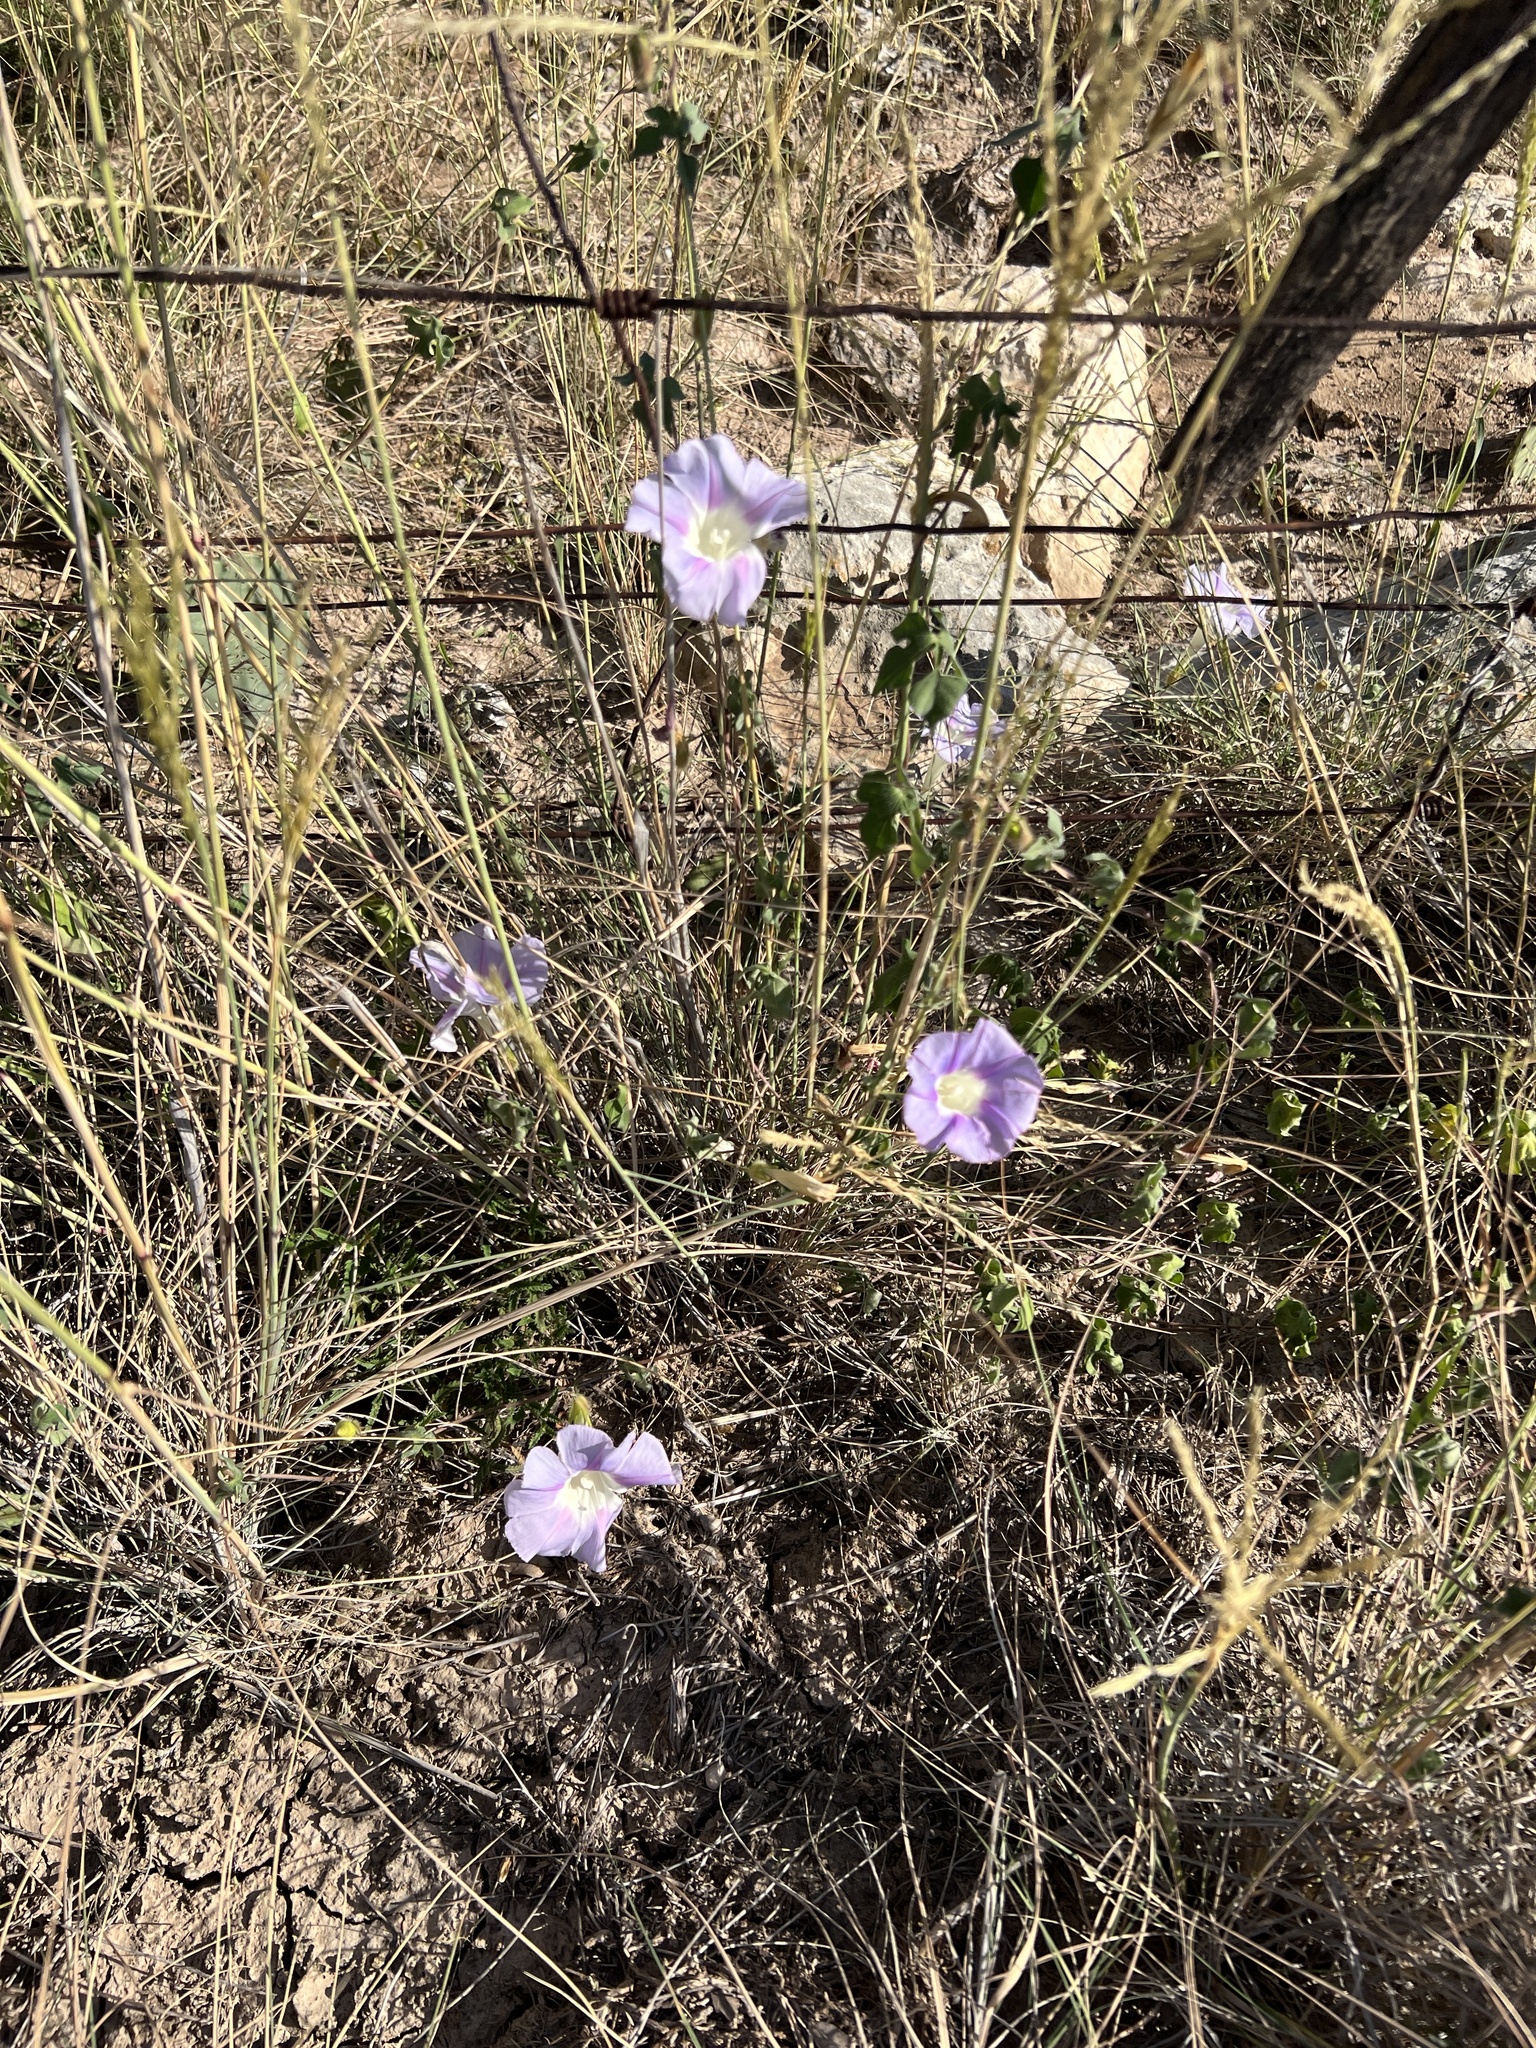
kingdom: Plantae
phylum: Tracheophyta
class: Magnoliopsida
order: Solanales
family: Convolvulaceae
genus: Ipomoea
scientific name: Ipomoea lindheimeri
